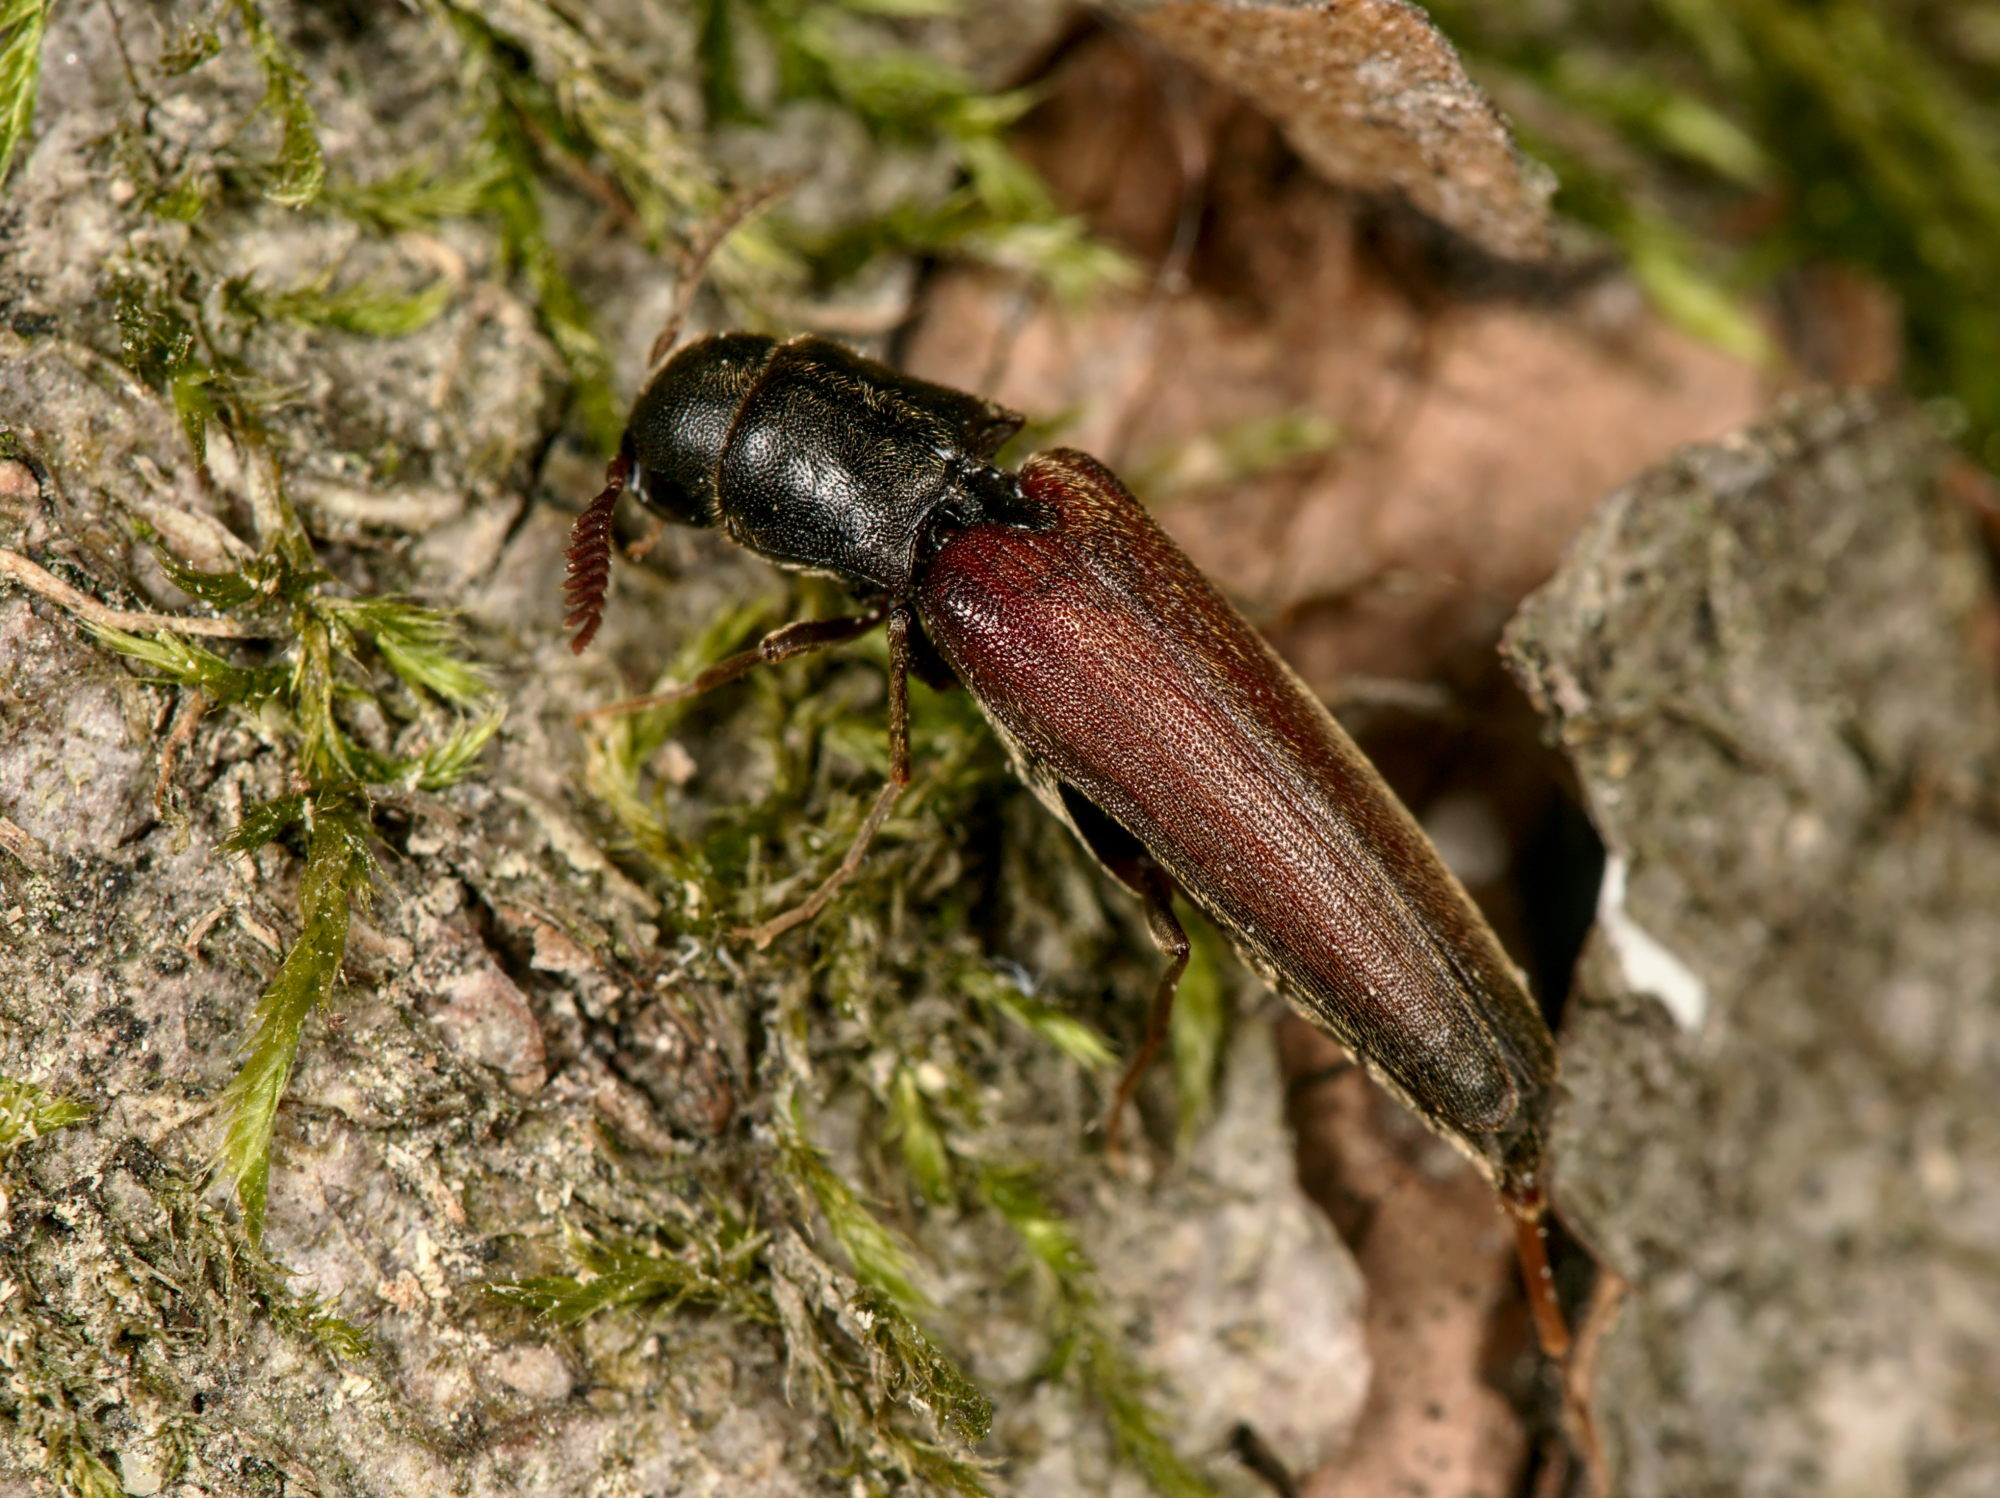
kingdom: Animalia
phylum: Arthropoda
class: Insecta
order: Coleoptera
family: Eucnemidae
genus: Isorhipis
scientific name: Isorhipis melasoides
